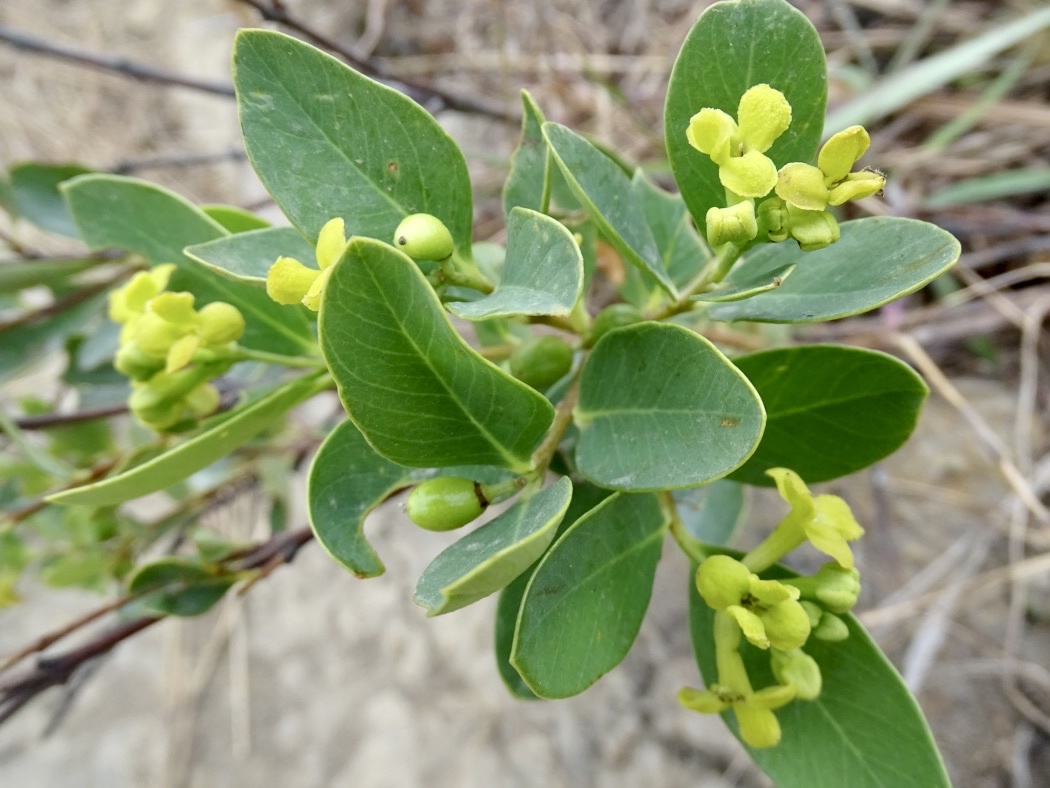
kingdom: Plantae
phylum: Tracheophyta
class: Magnoliopsida
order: Malvales
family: Thymelaeaceae
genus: Wikstroemia
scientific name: Wikstroemia indica
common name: Tiebush
